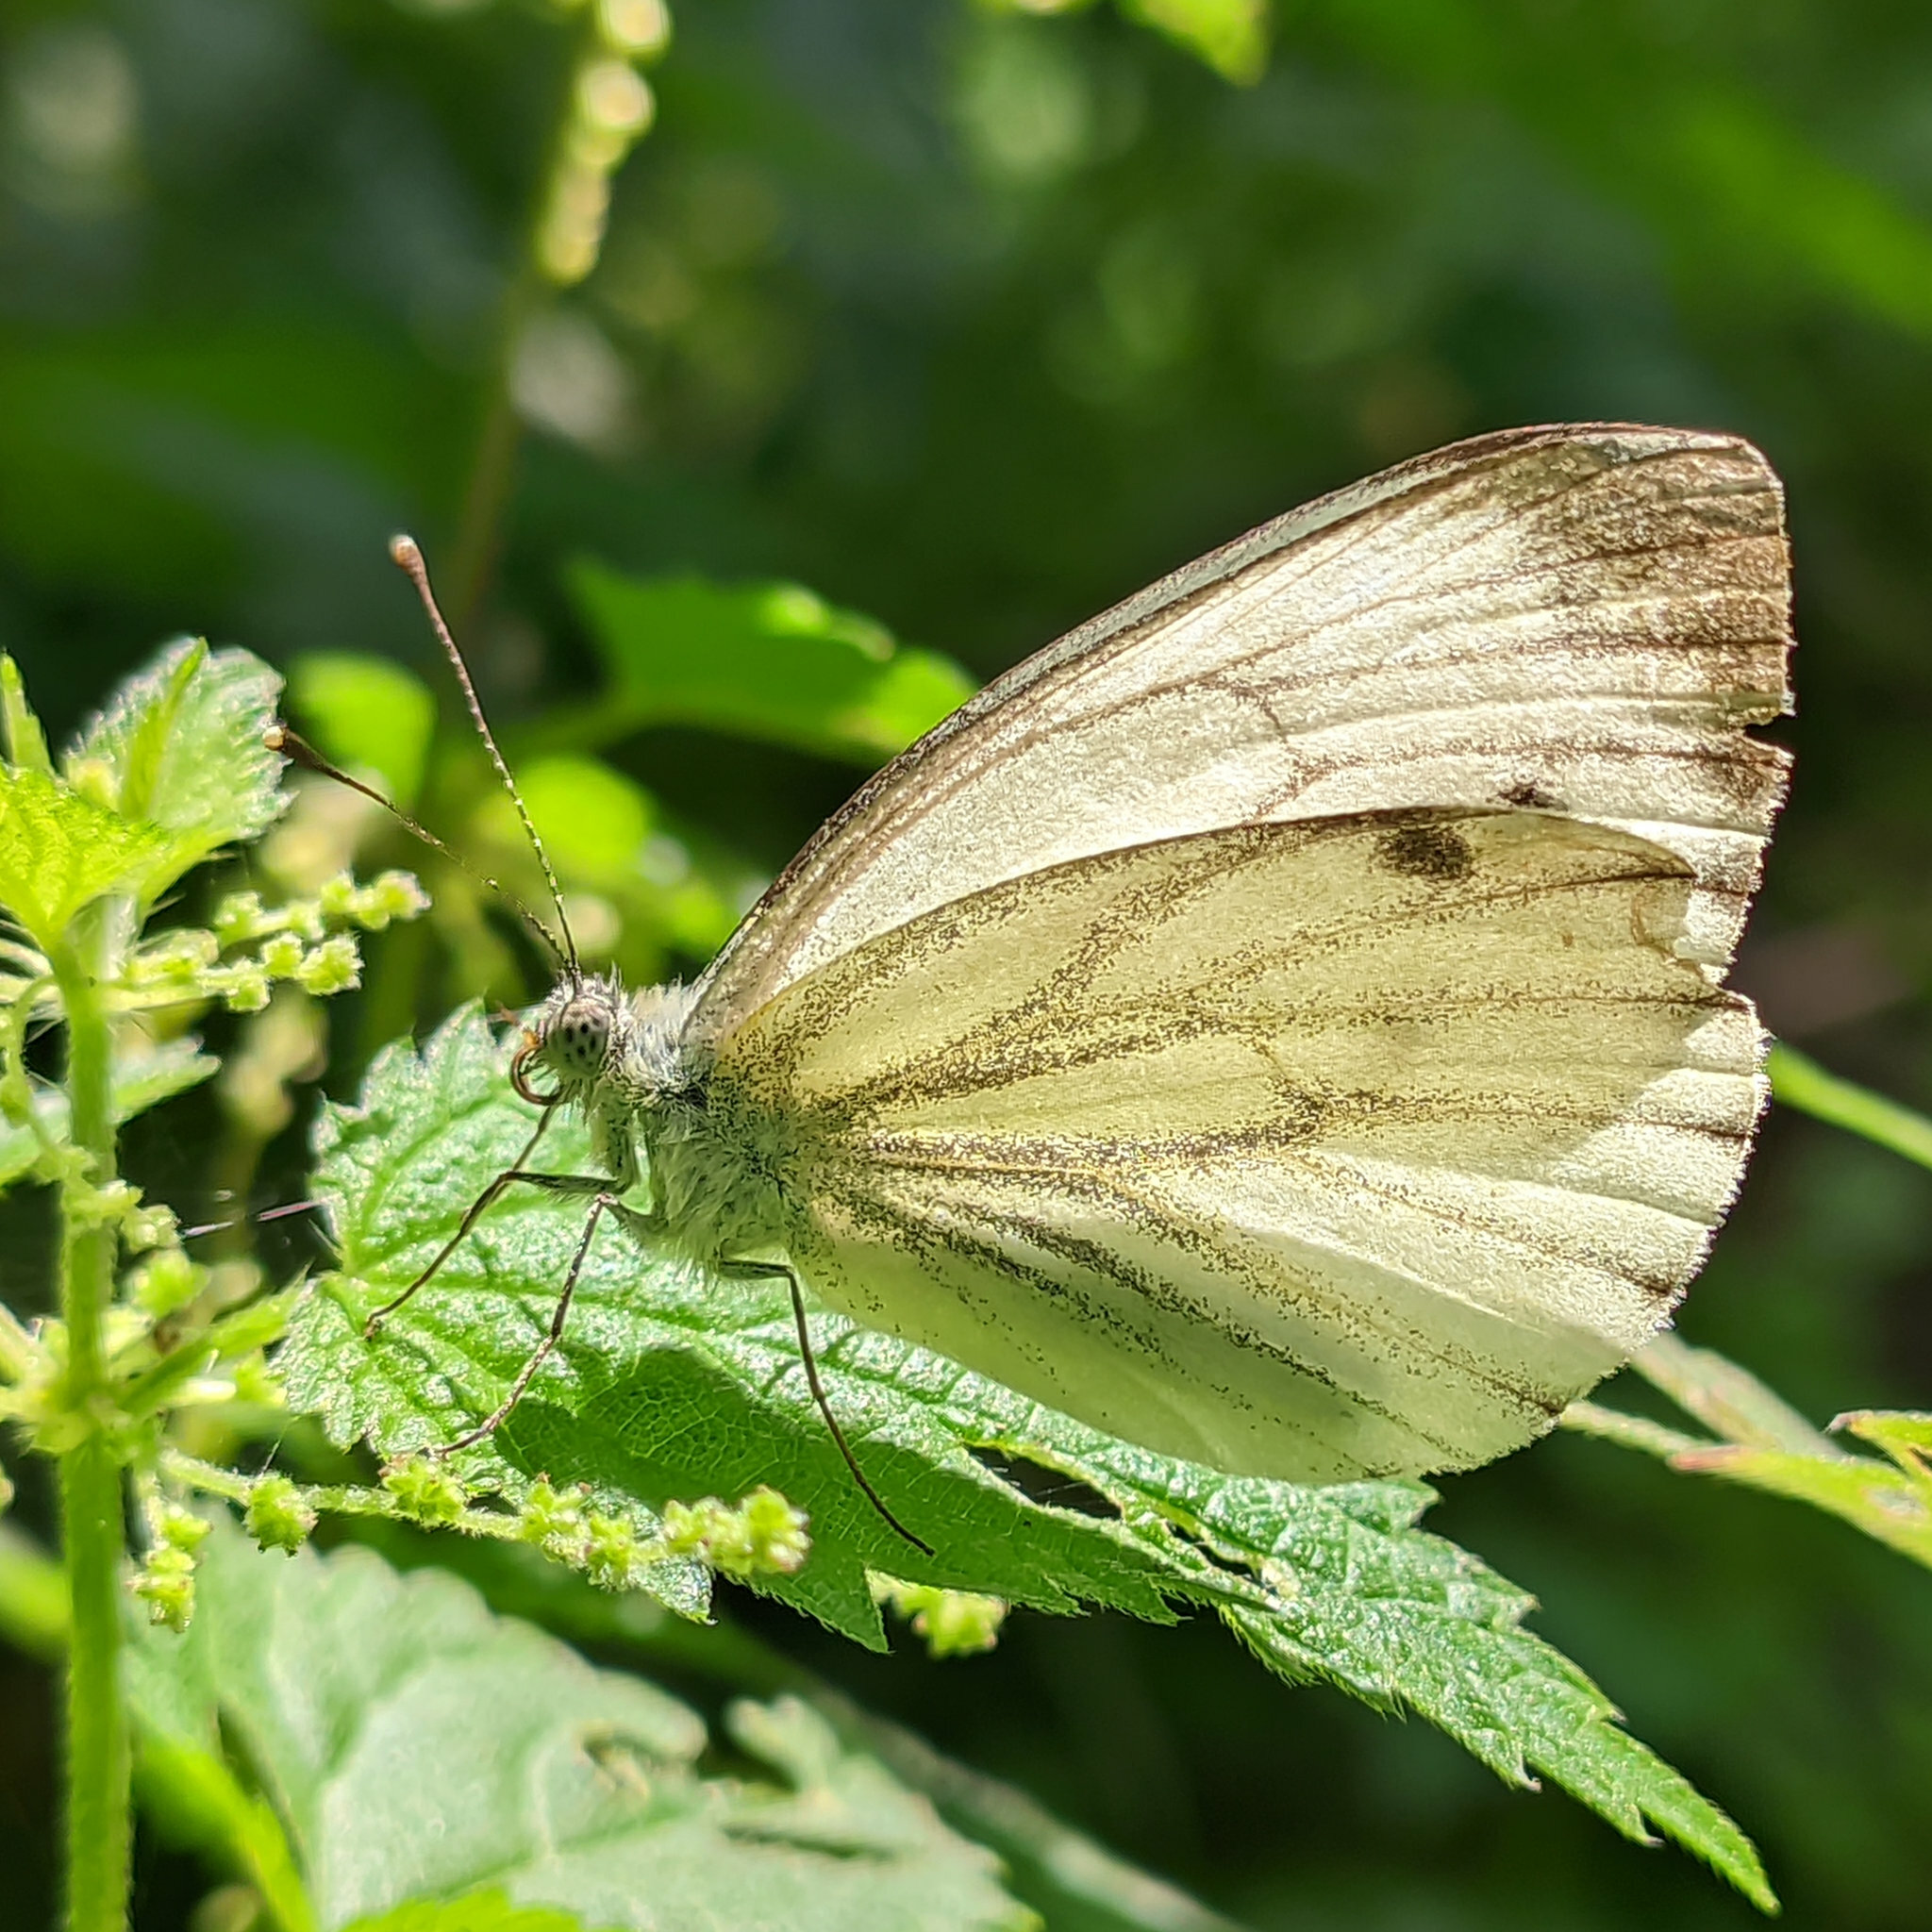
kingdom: Animalia
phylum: Arthropoda
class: Insecta
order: Lepidoptera
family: Pieridae
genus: Pieris
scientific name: Pieris napi
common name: Green-veined white
